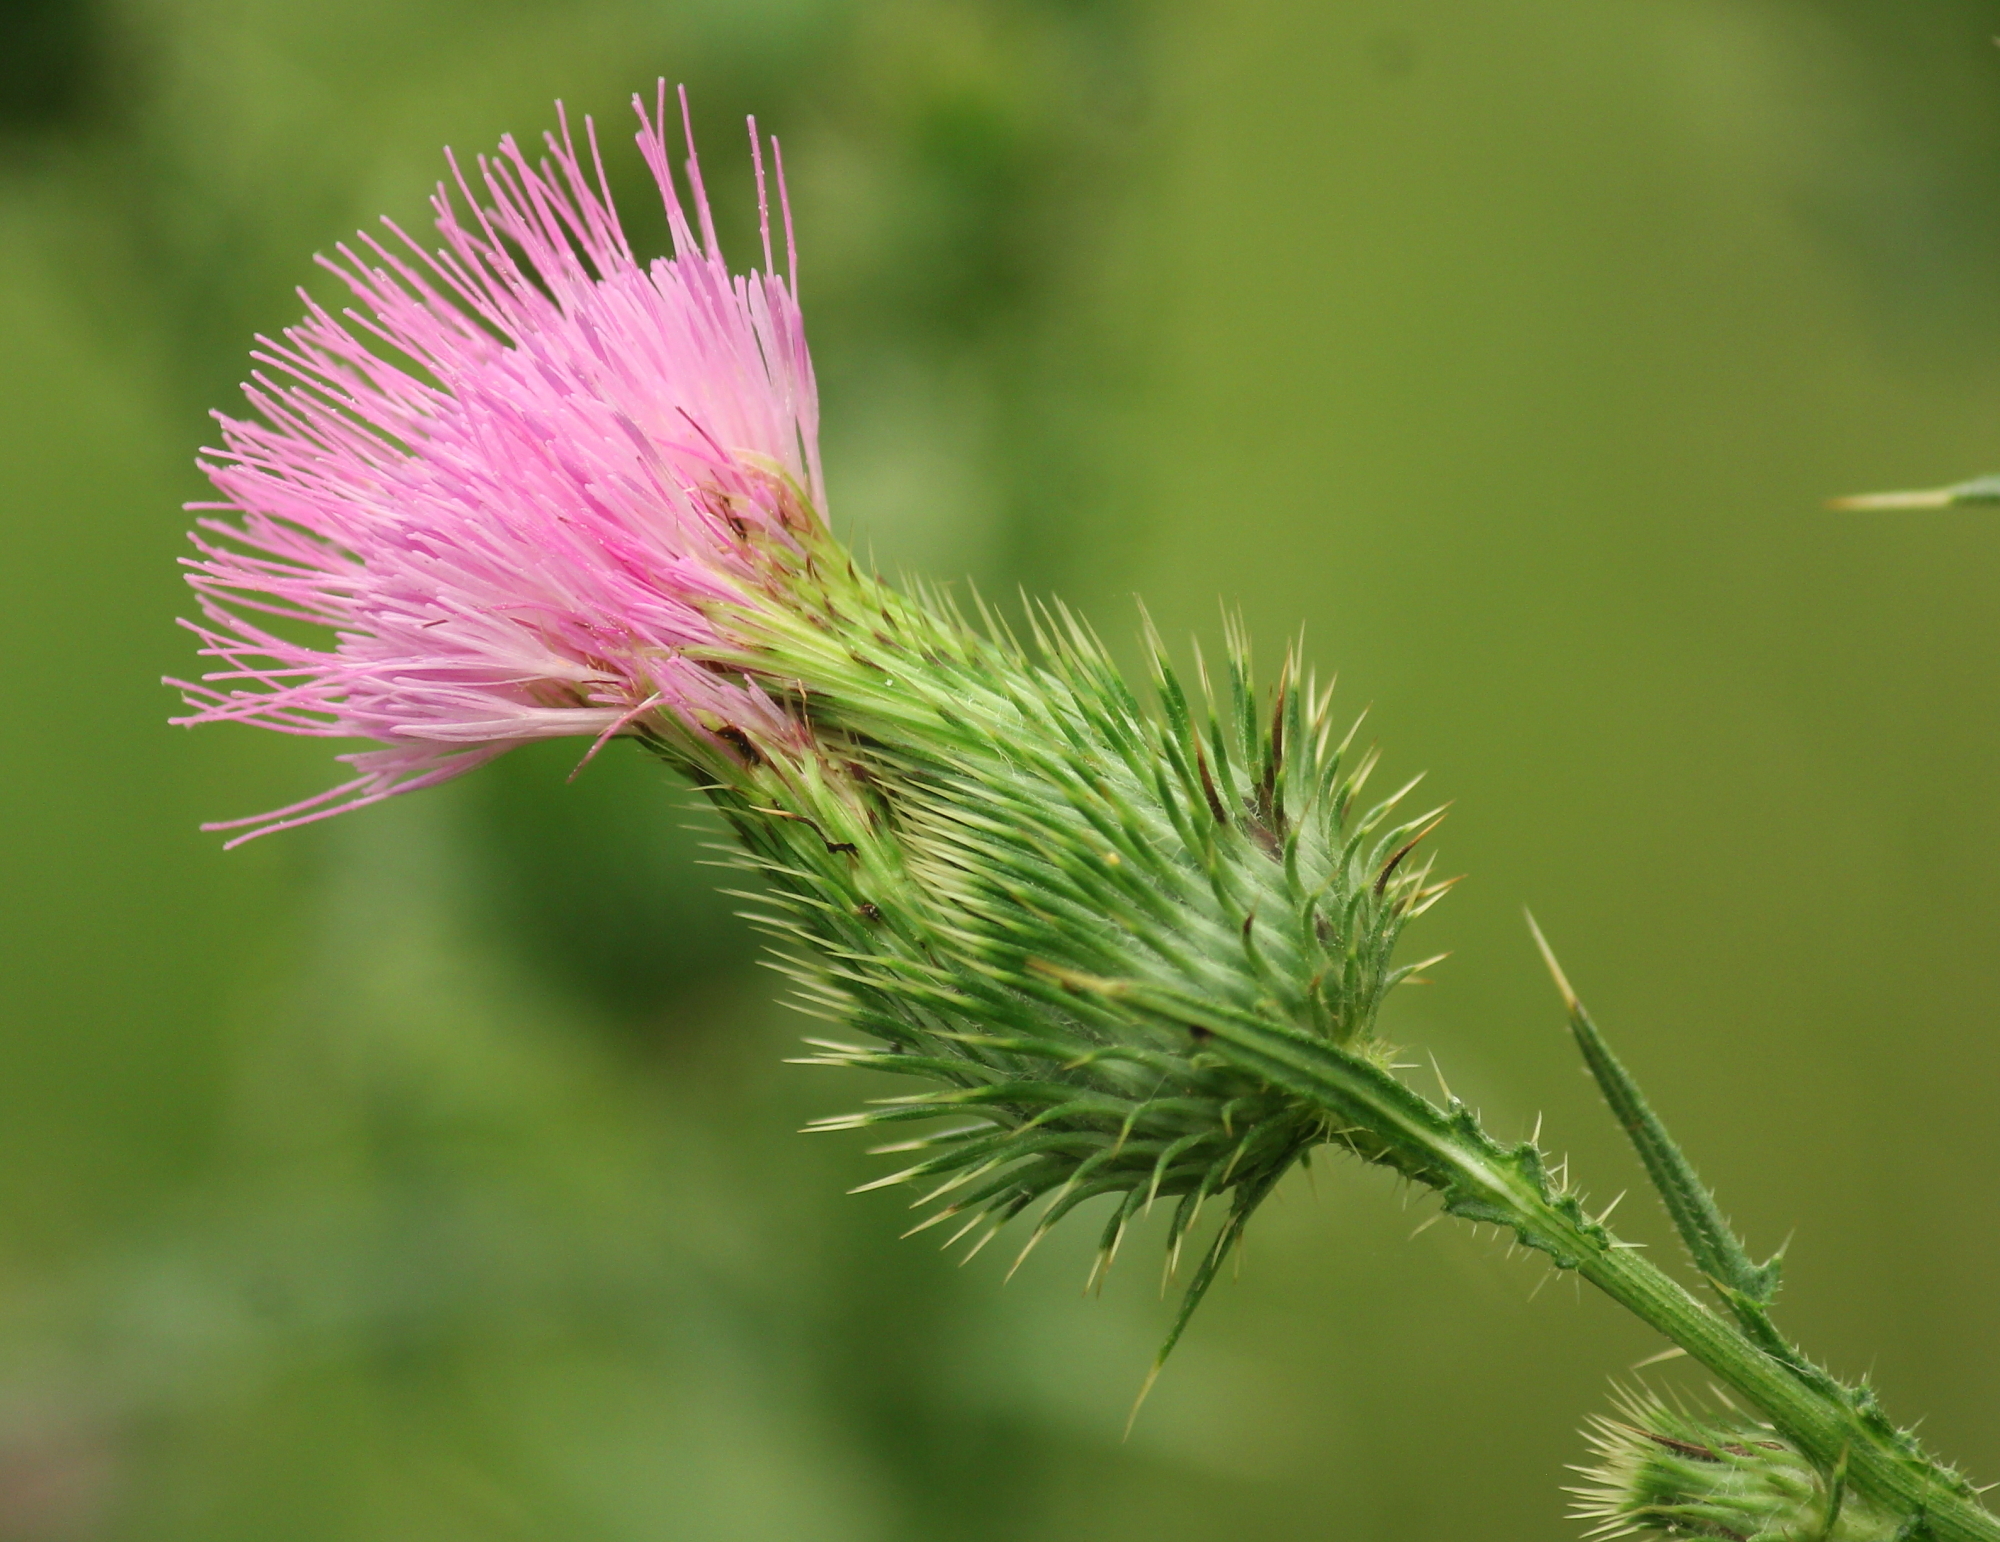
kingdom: Plantae
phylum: Tracheophyta
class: Magnoliopsida
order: Asterales
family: Asteraceae
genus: Cirsium
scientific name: Cirsium vulgare
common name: Bull thistle
